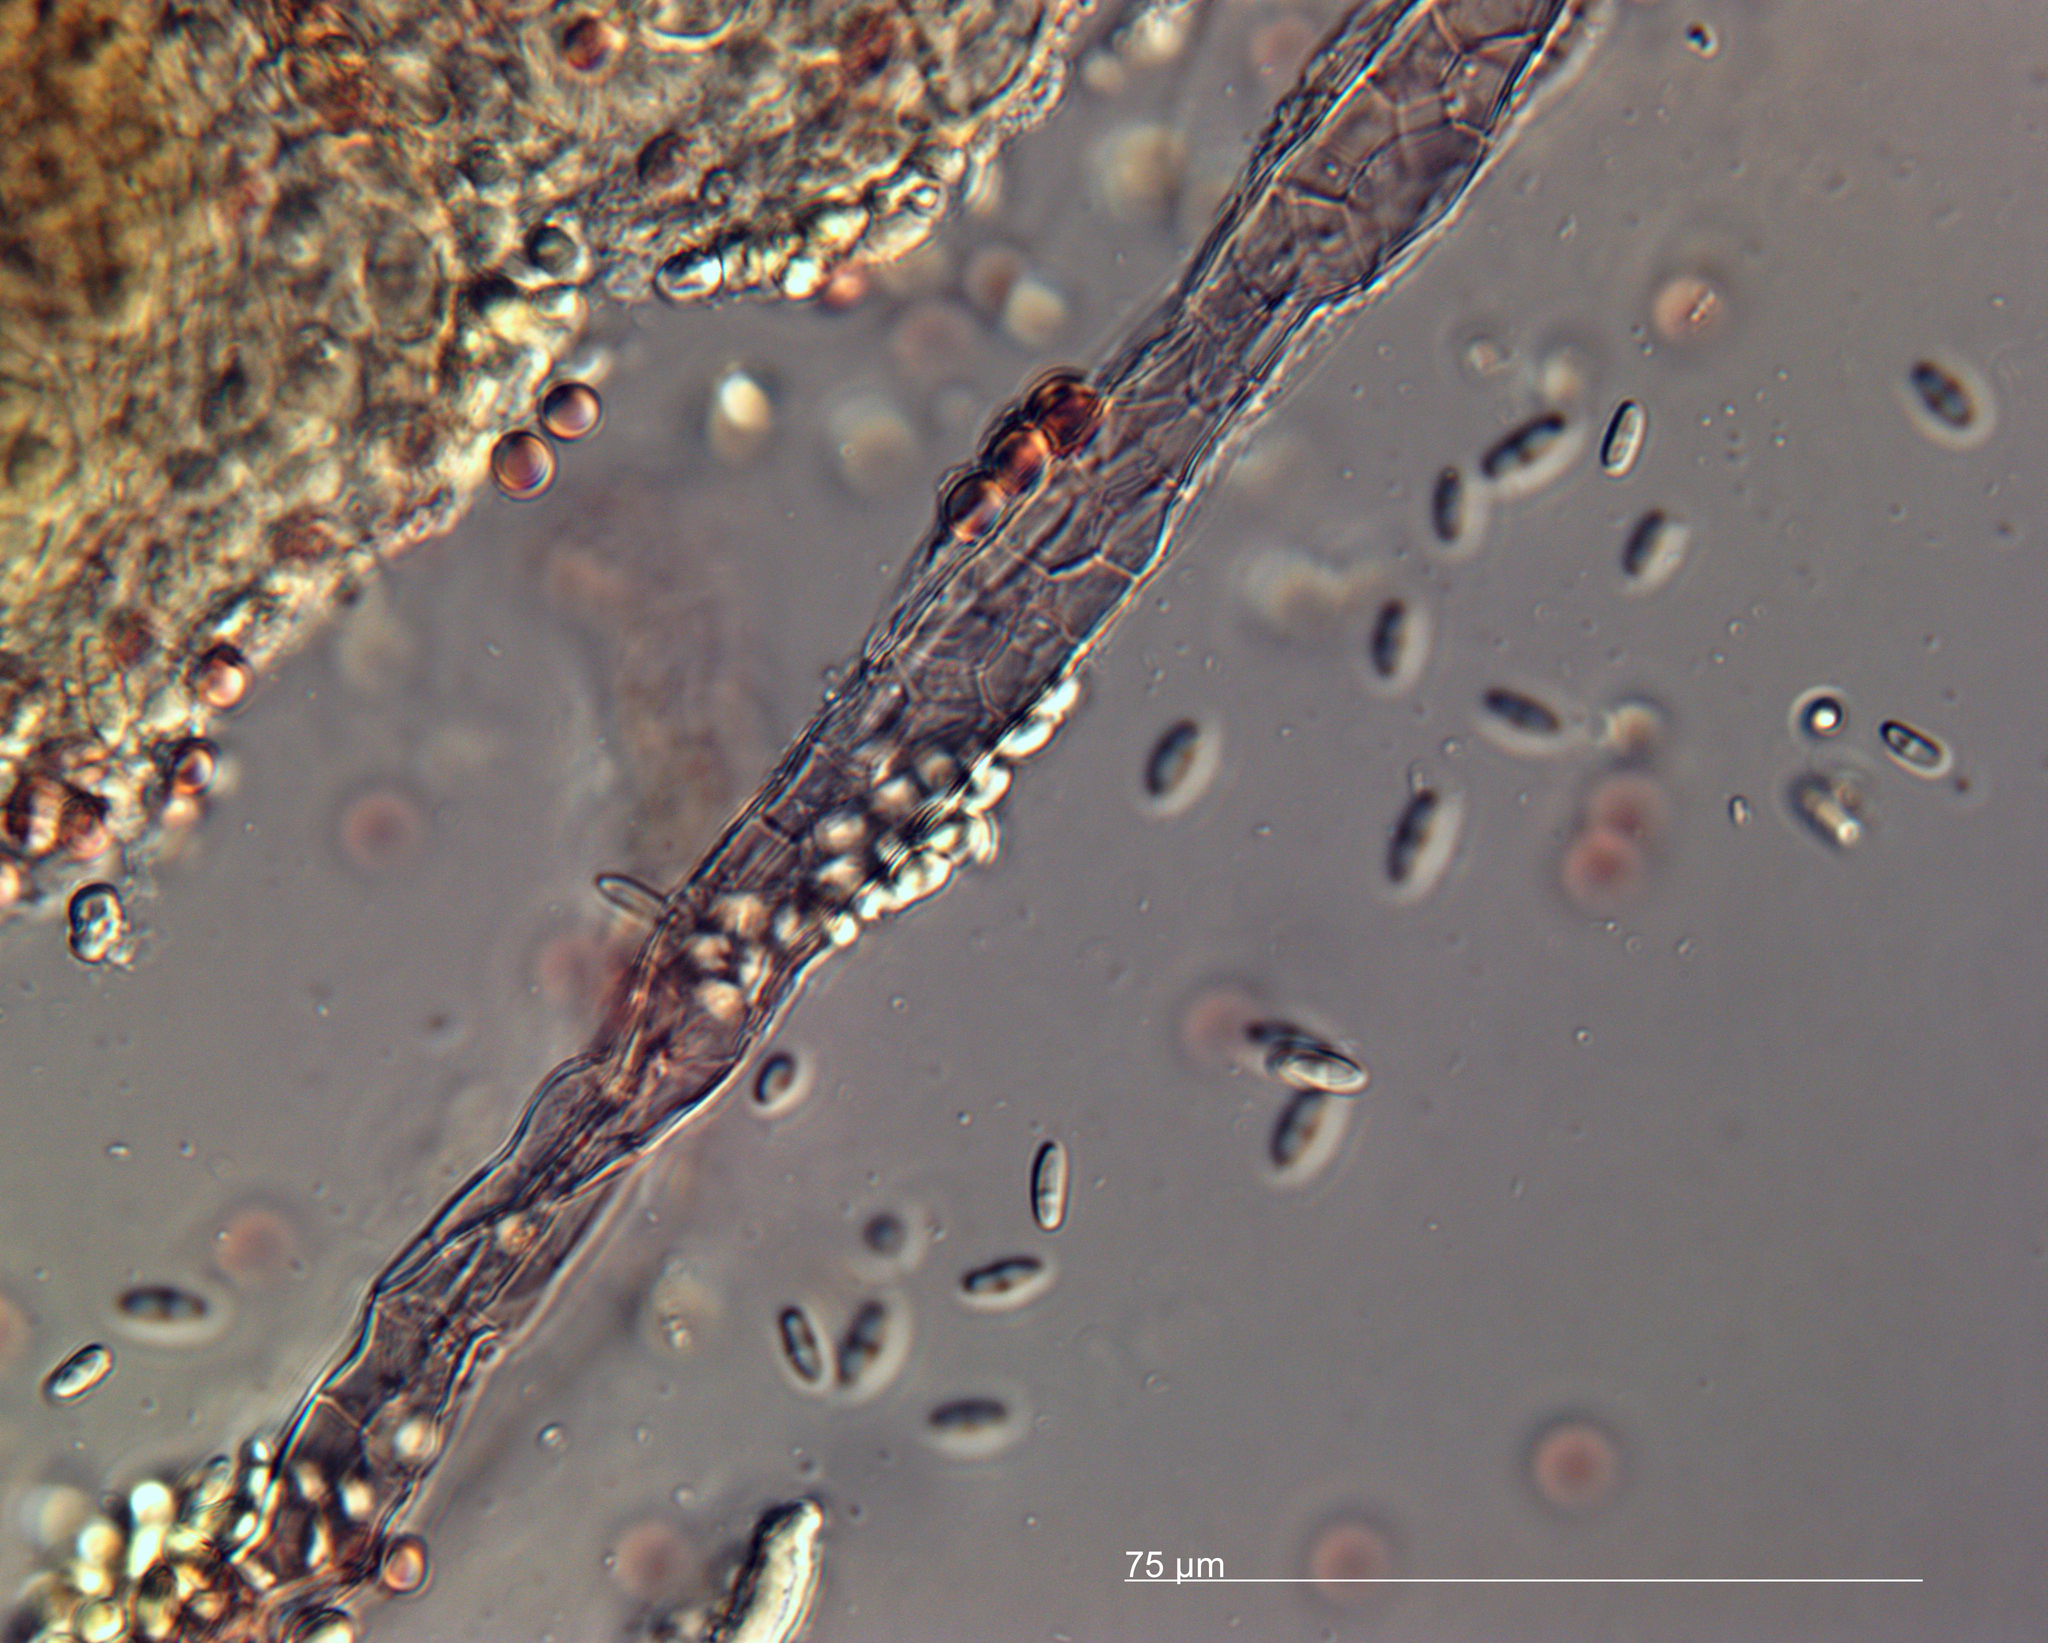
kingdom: Protozoa
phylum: Mycetozoa
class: Dictyosteliomycetes
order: Dictyosteliales
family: Dictyosteliaceae
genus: Dictyostelium
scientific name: Dictyostelium rosarium
